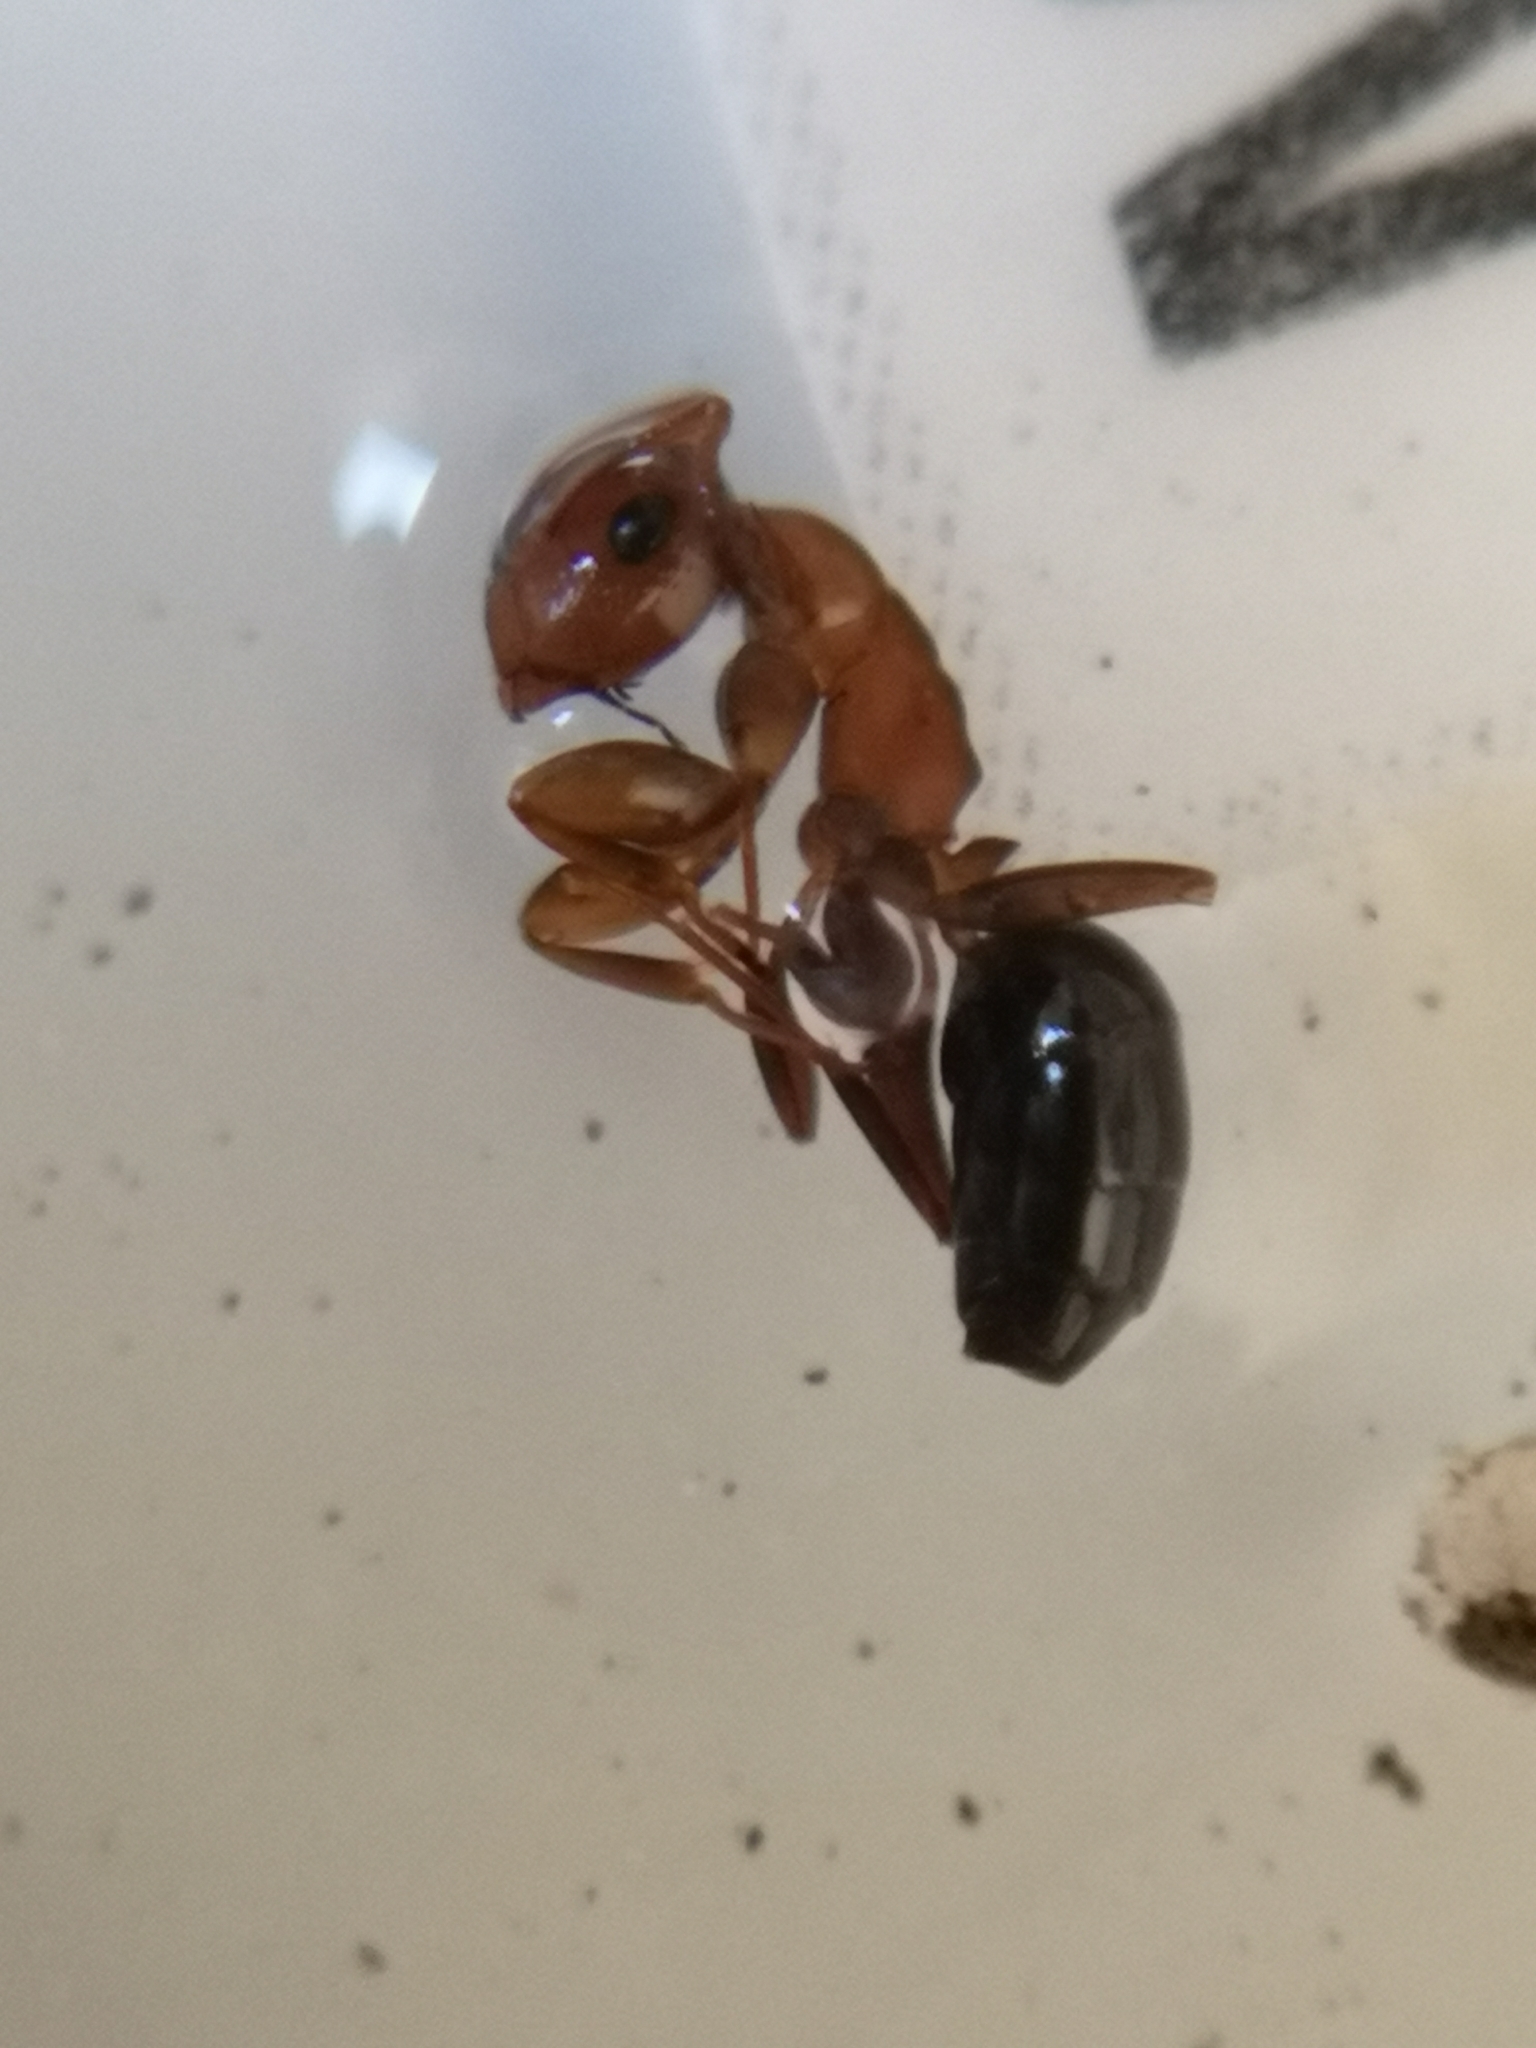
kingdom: Animalia
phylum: Arthropoda
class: Insecta
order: Hymenoptera
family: Formicidae
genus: Camponotus
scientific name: Camponotus truncatus
